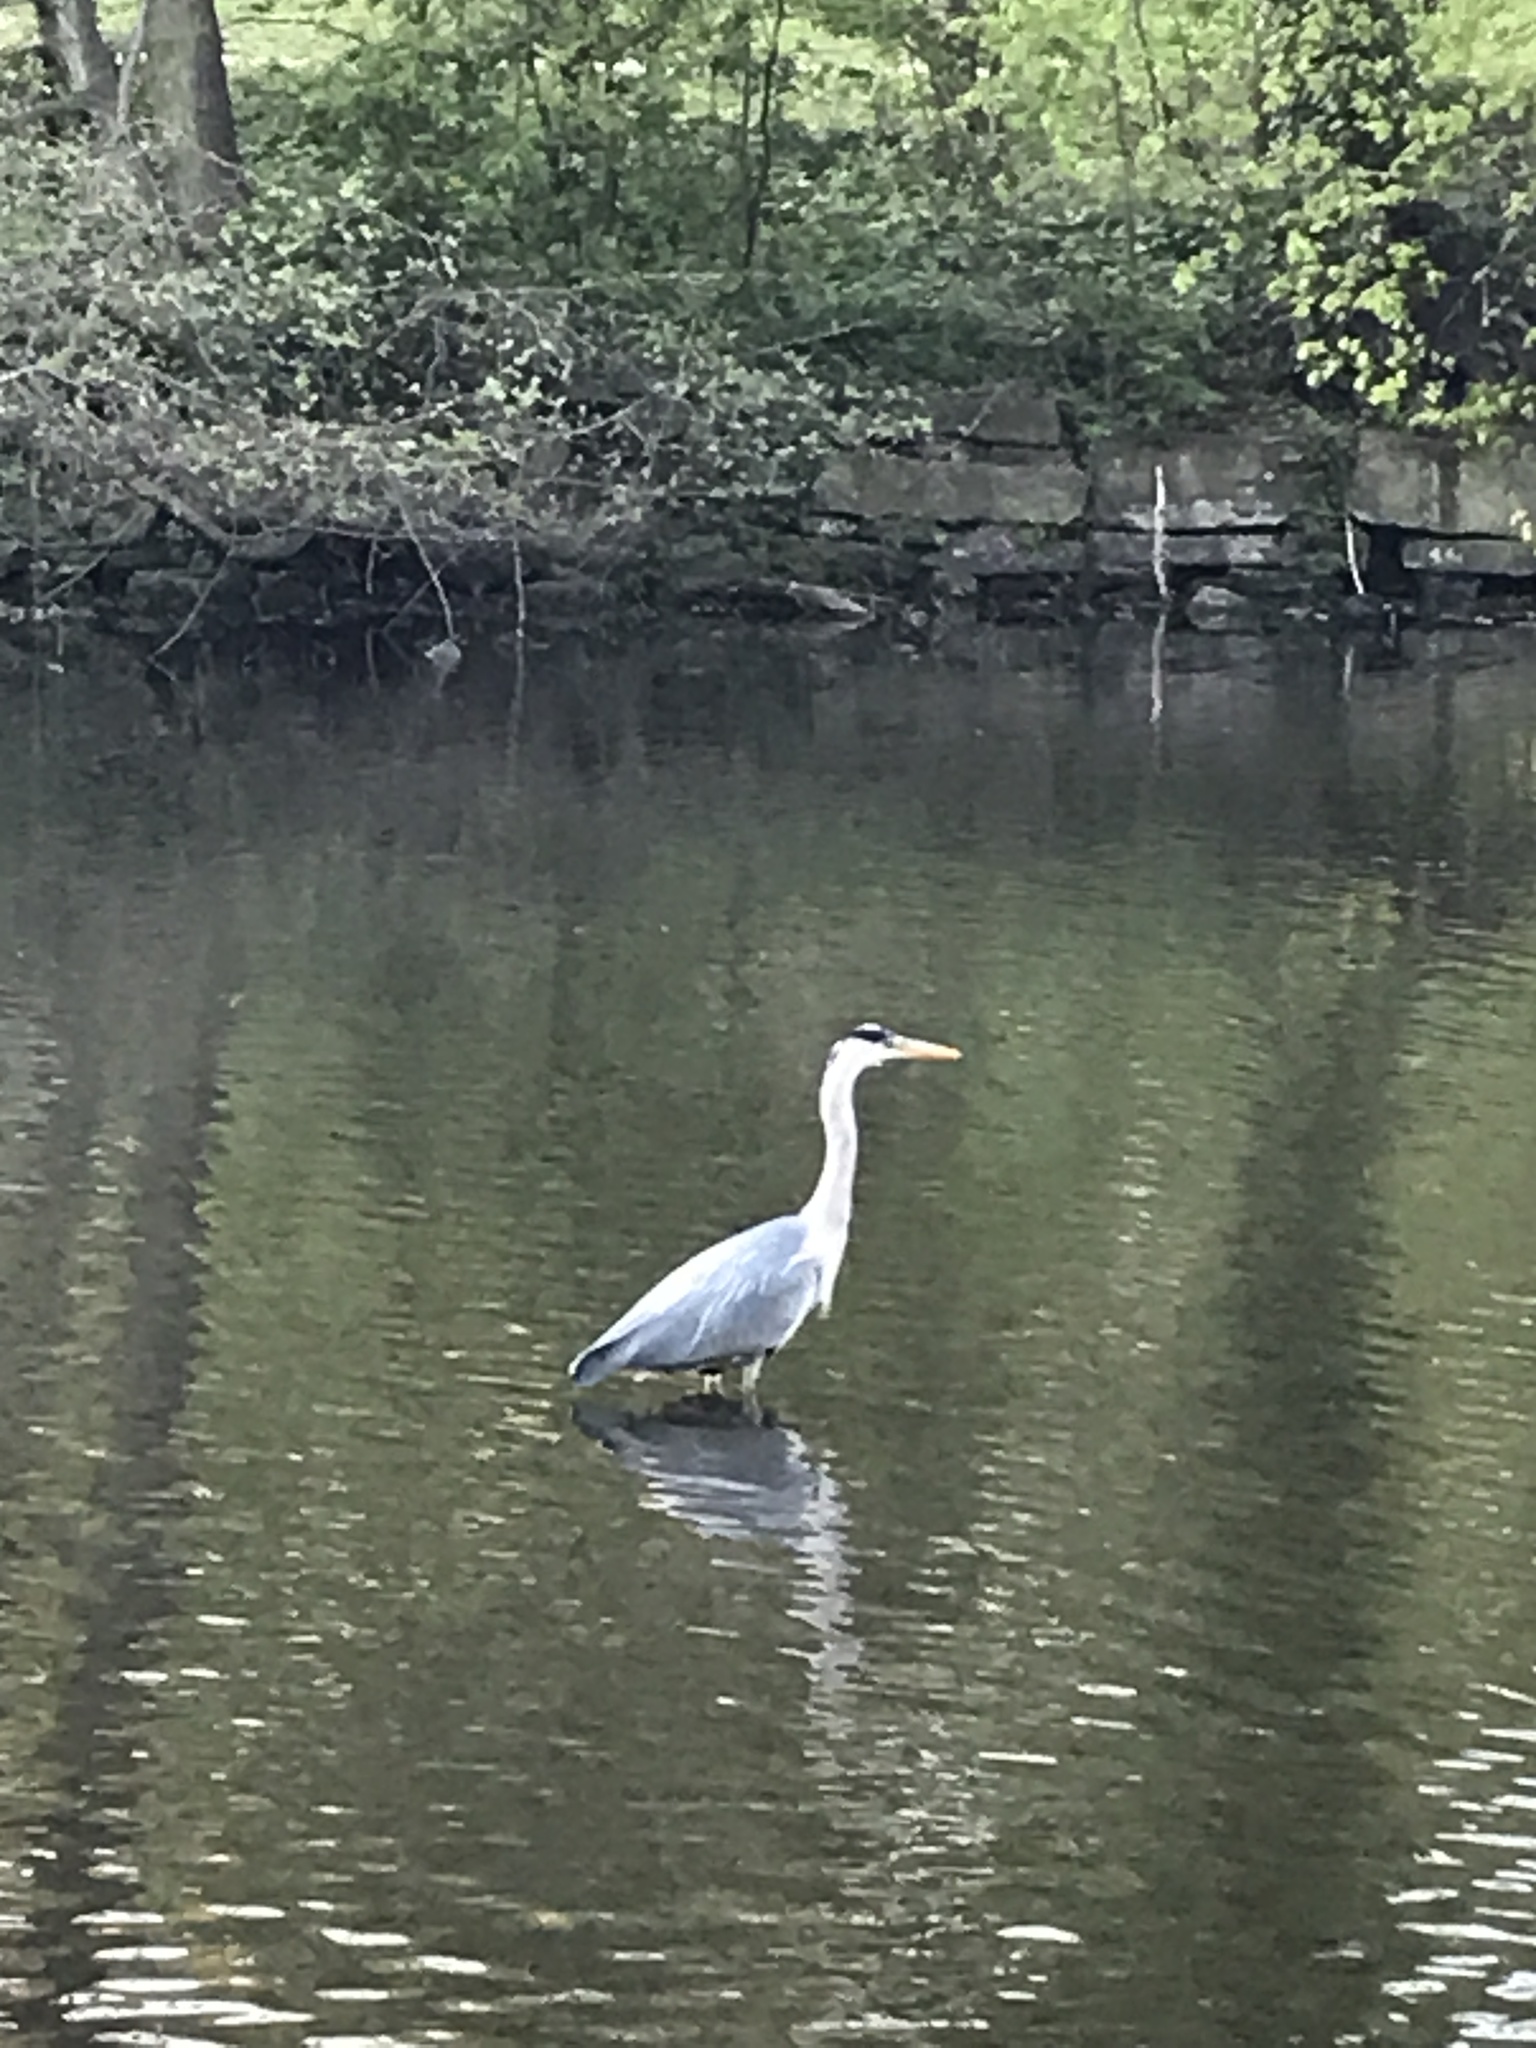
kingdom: Animalia
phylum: Chordata
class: Aves
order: Pelecaniformes
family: Ardeidae
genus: Ardea
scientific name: Ardea cinerea
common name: Grey heron
